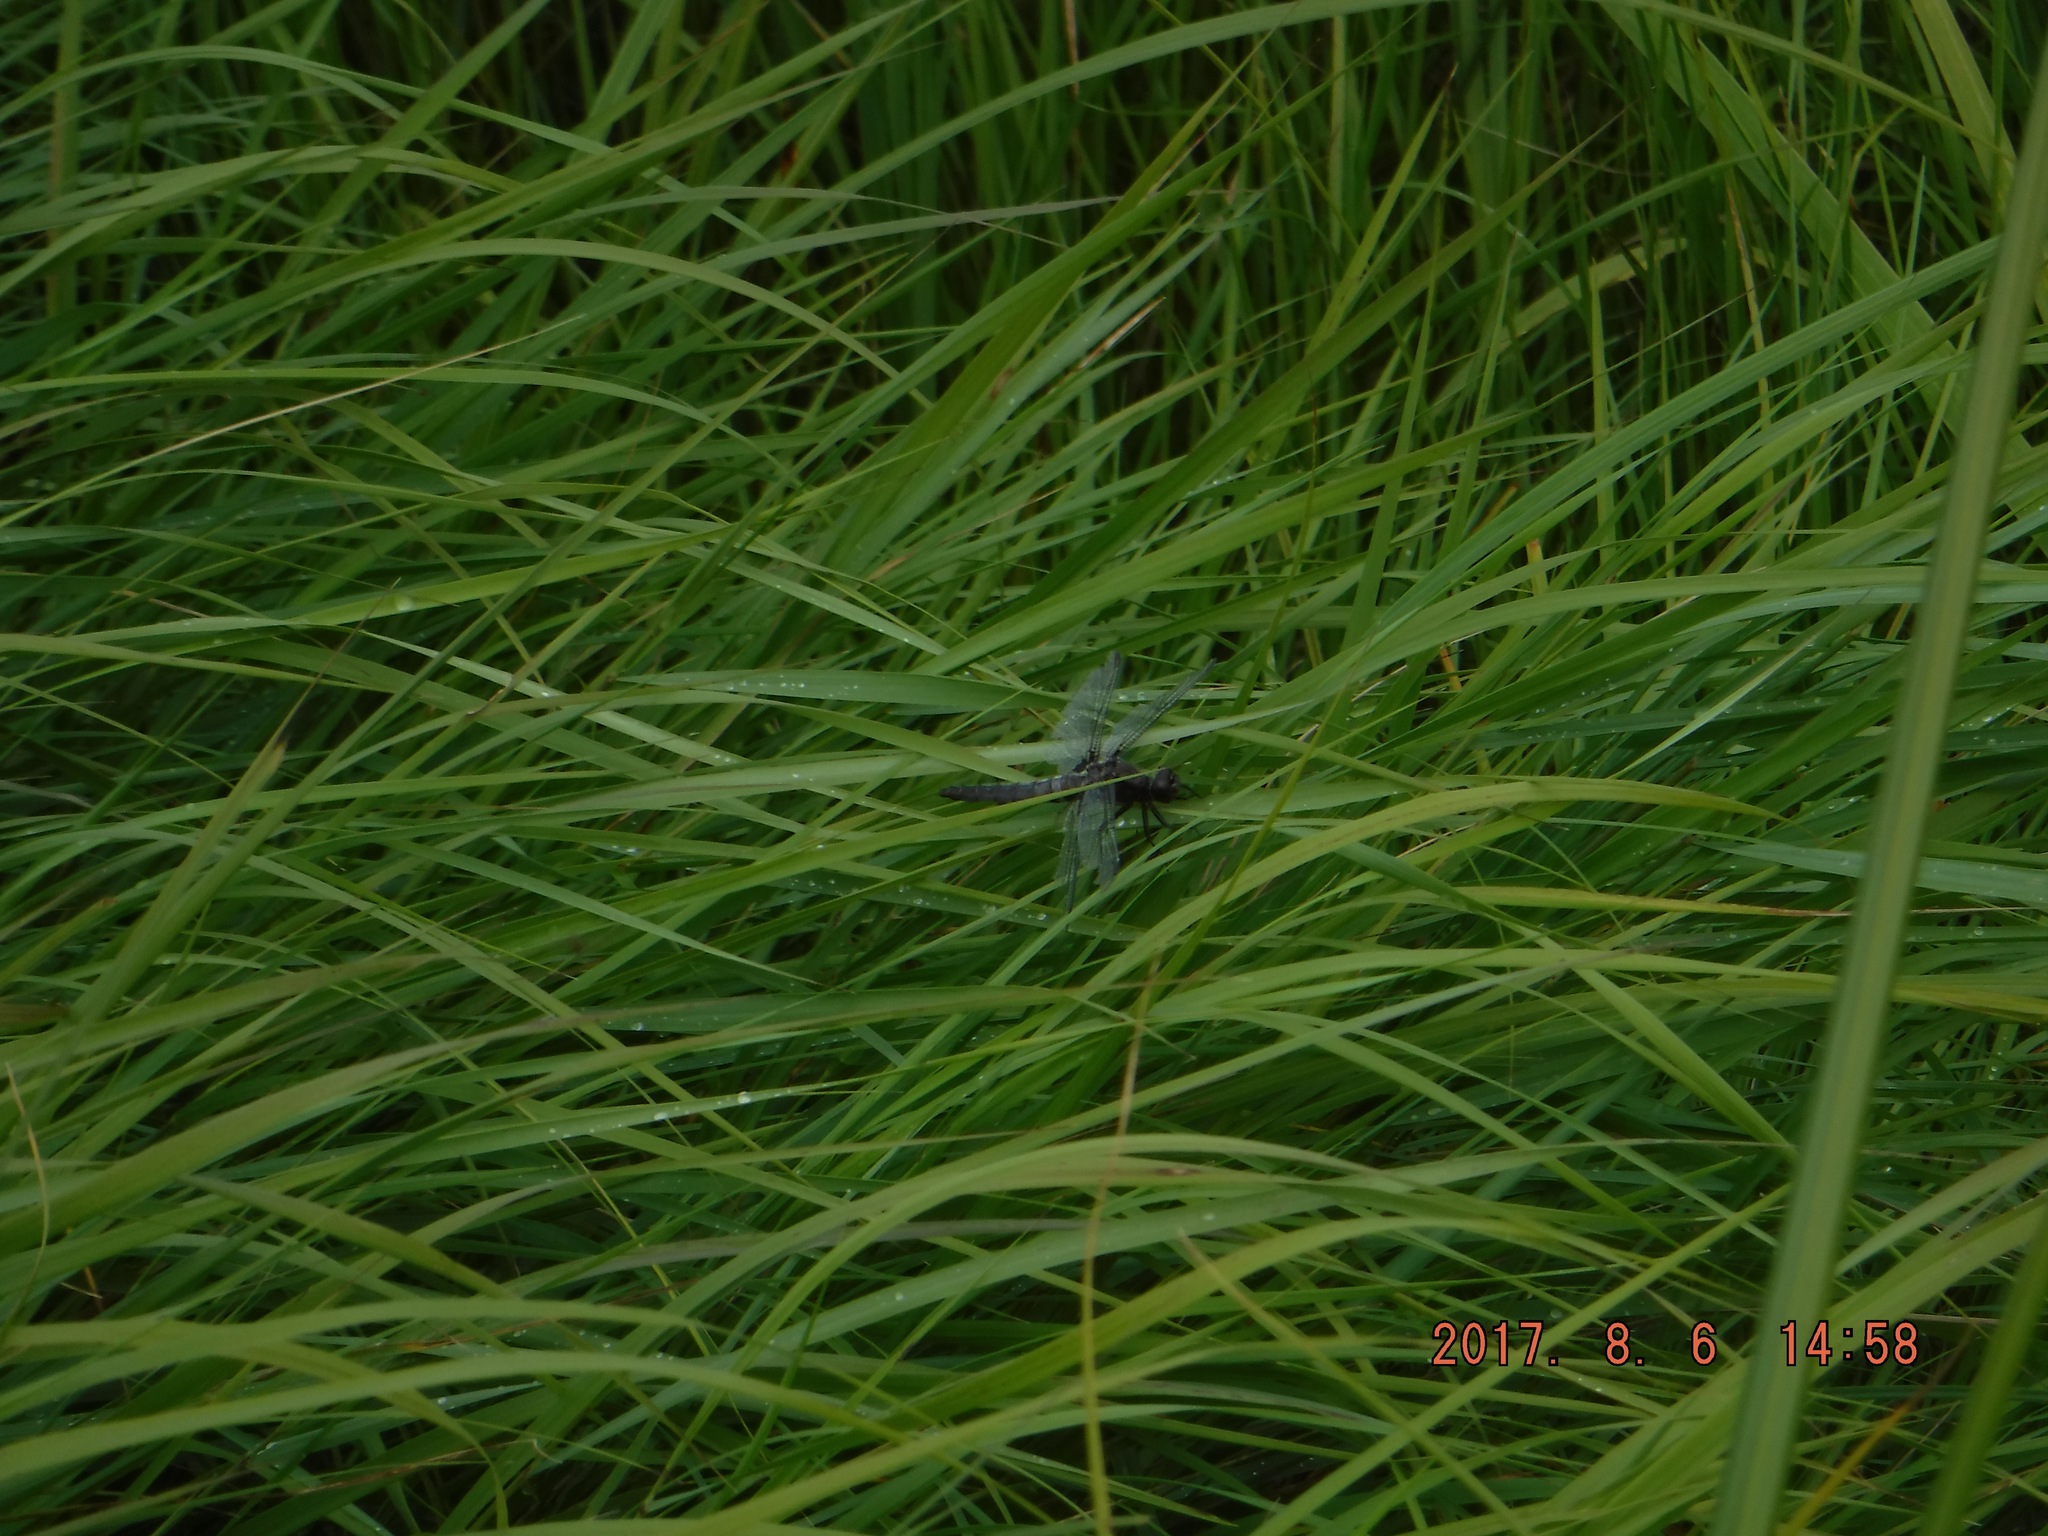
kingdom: Animalia
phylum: Arthropoda
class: Insecta
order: Odonata
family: Libellulidae
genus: Ladona
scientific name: Ladona julia
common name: Chalk-fronted corporal
